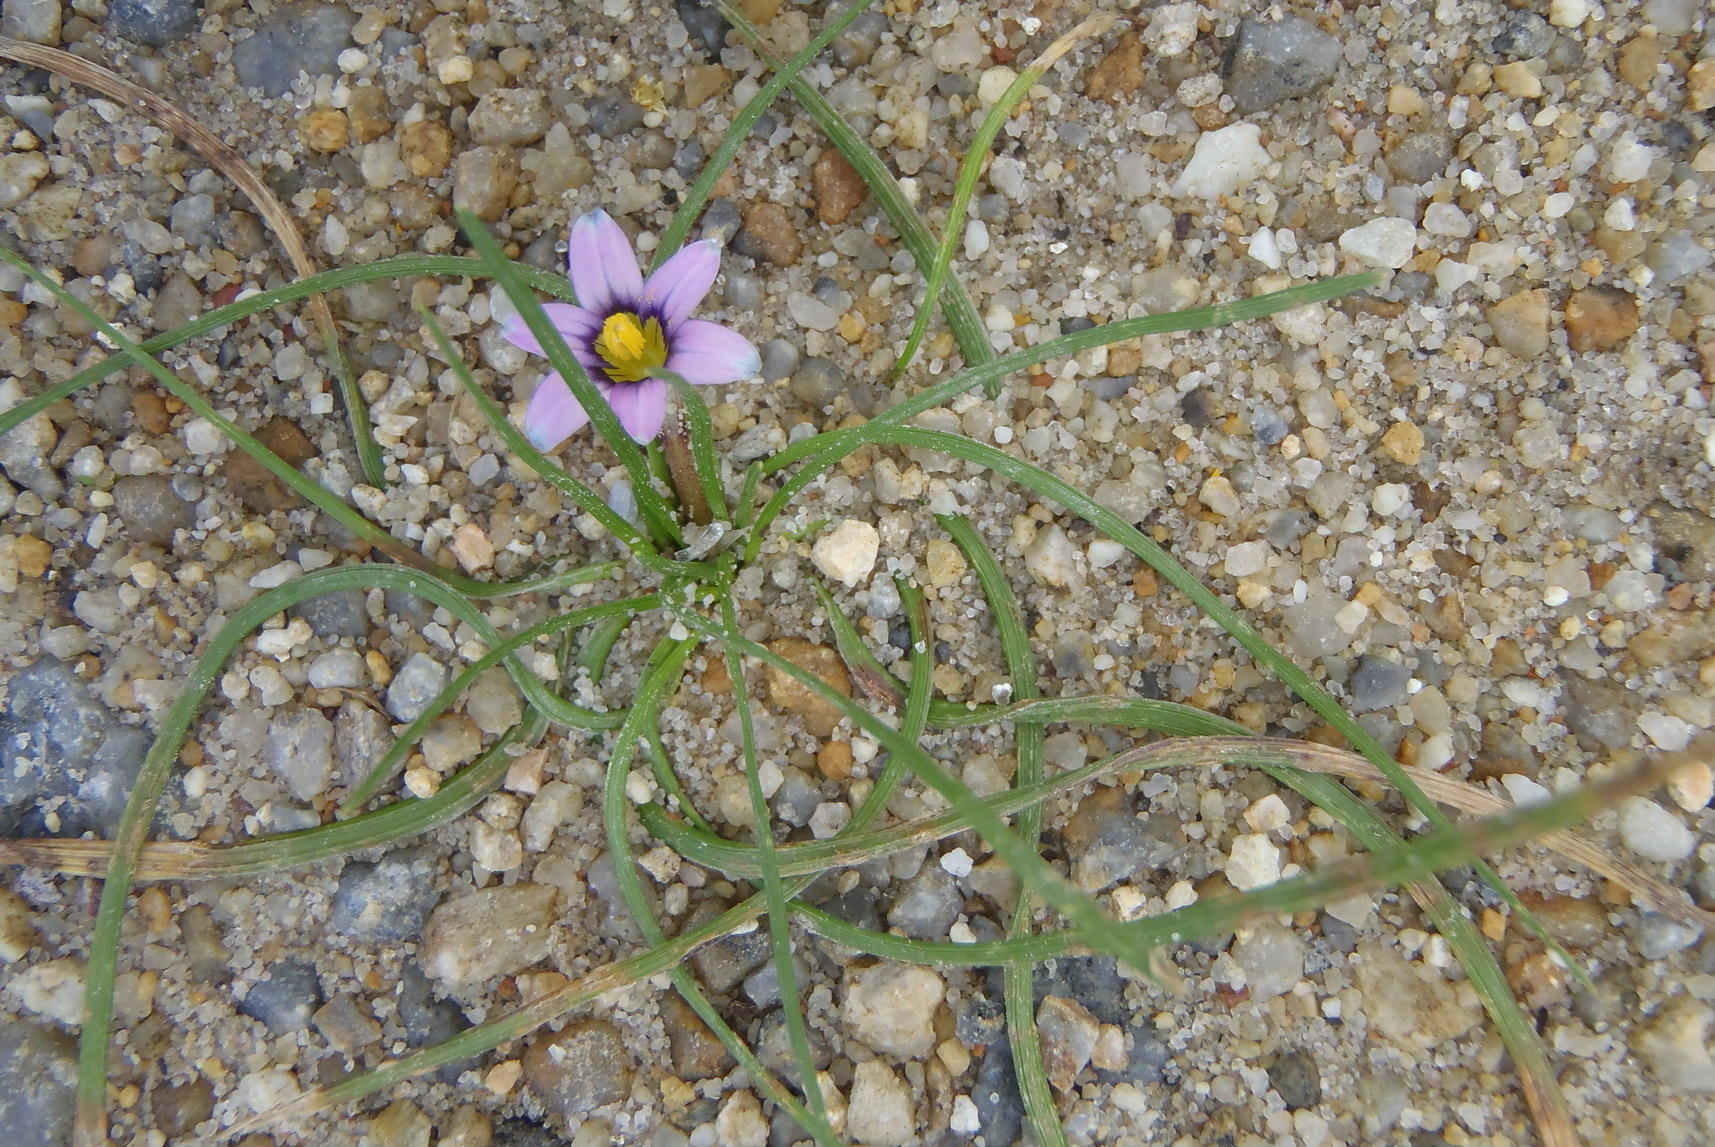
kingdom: Plantae
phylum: Tracheophyta
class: Liliopsida
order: Asparagales
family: Iridaceae
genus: Romulea
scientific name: Romulea minutiflora
